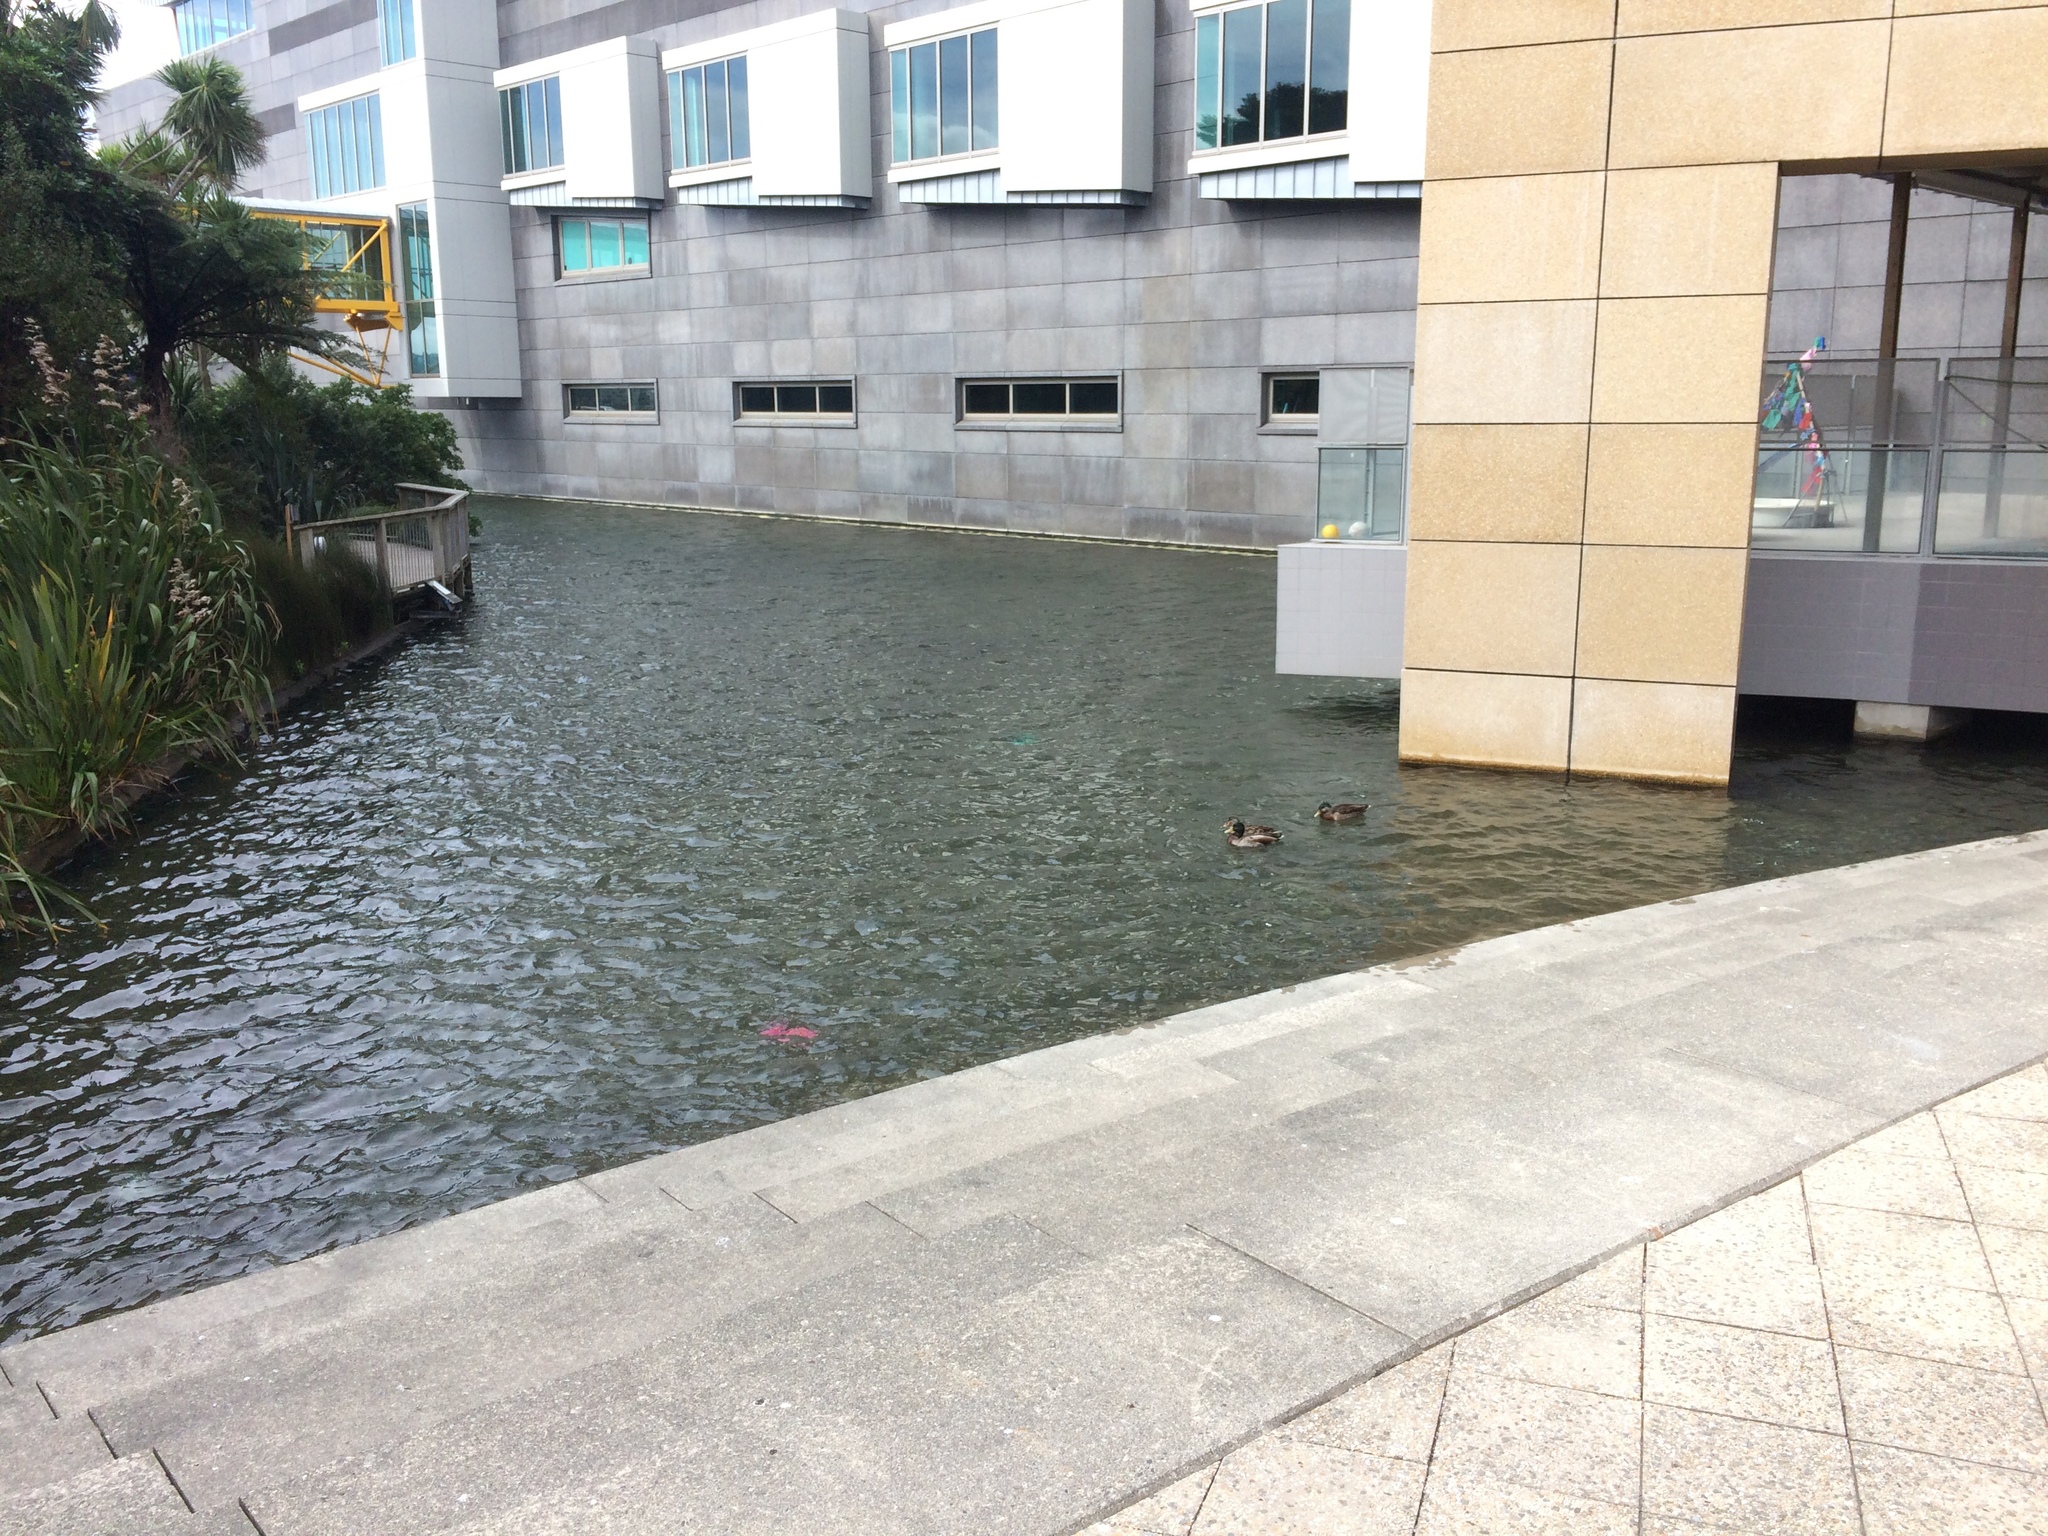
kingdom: Animalia
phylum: Chordata
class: Aves
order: Anseriformes
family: Anatidae
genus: Anas
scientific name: Anas platyrhynchos
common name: Mallard
